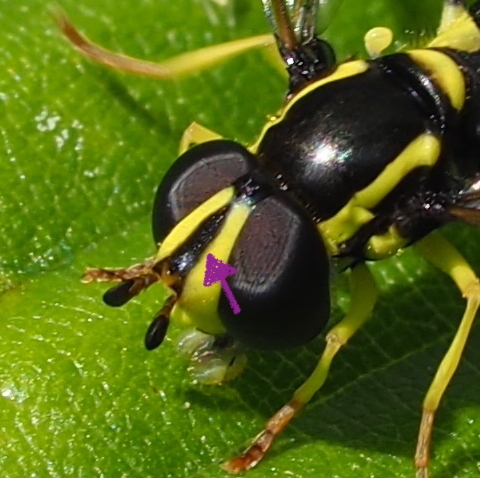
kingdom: Animalia
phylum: Arthropoda
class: Insecta
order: Diptera
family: Syrphidae
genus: Philhelius
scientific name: Philhelius dives
